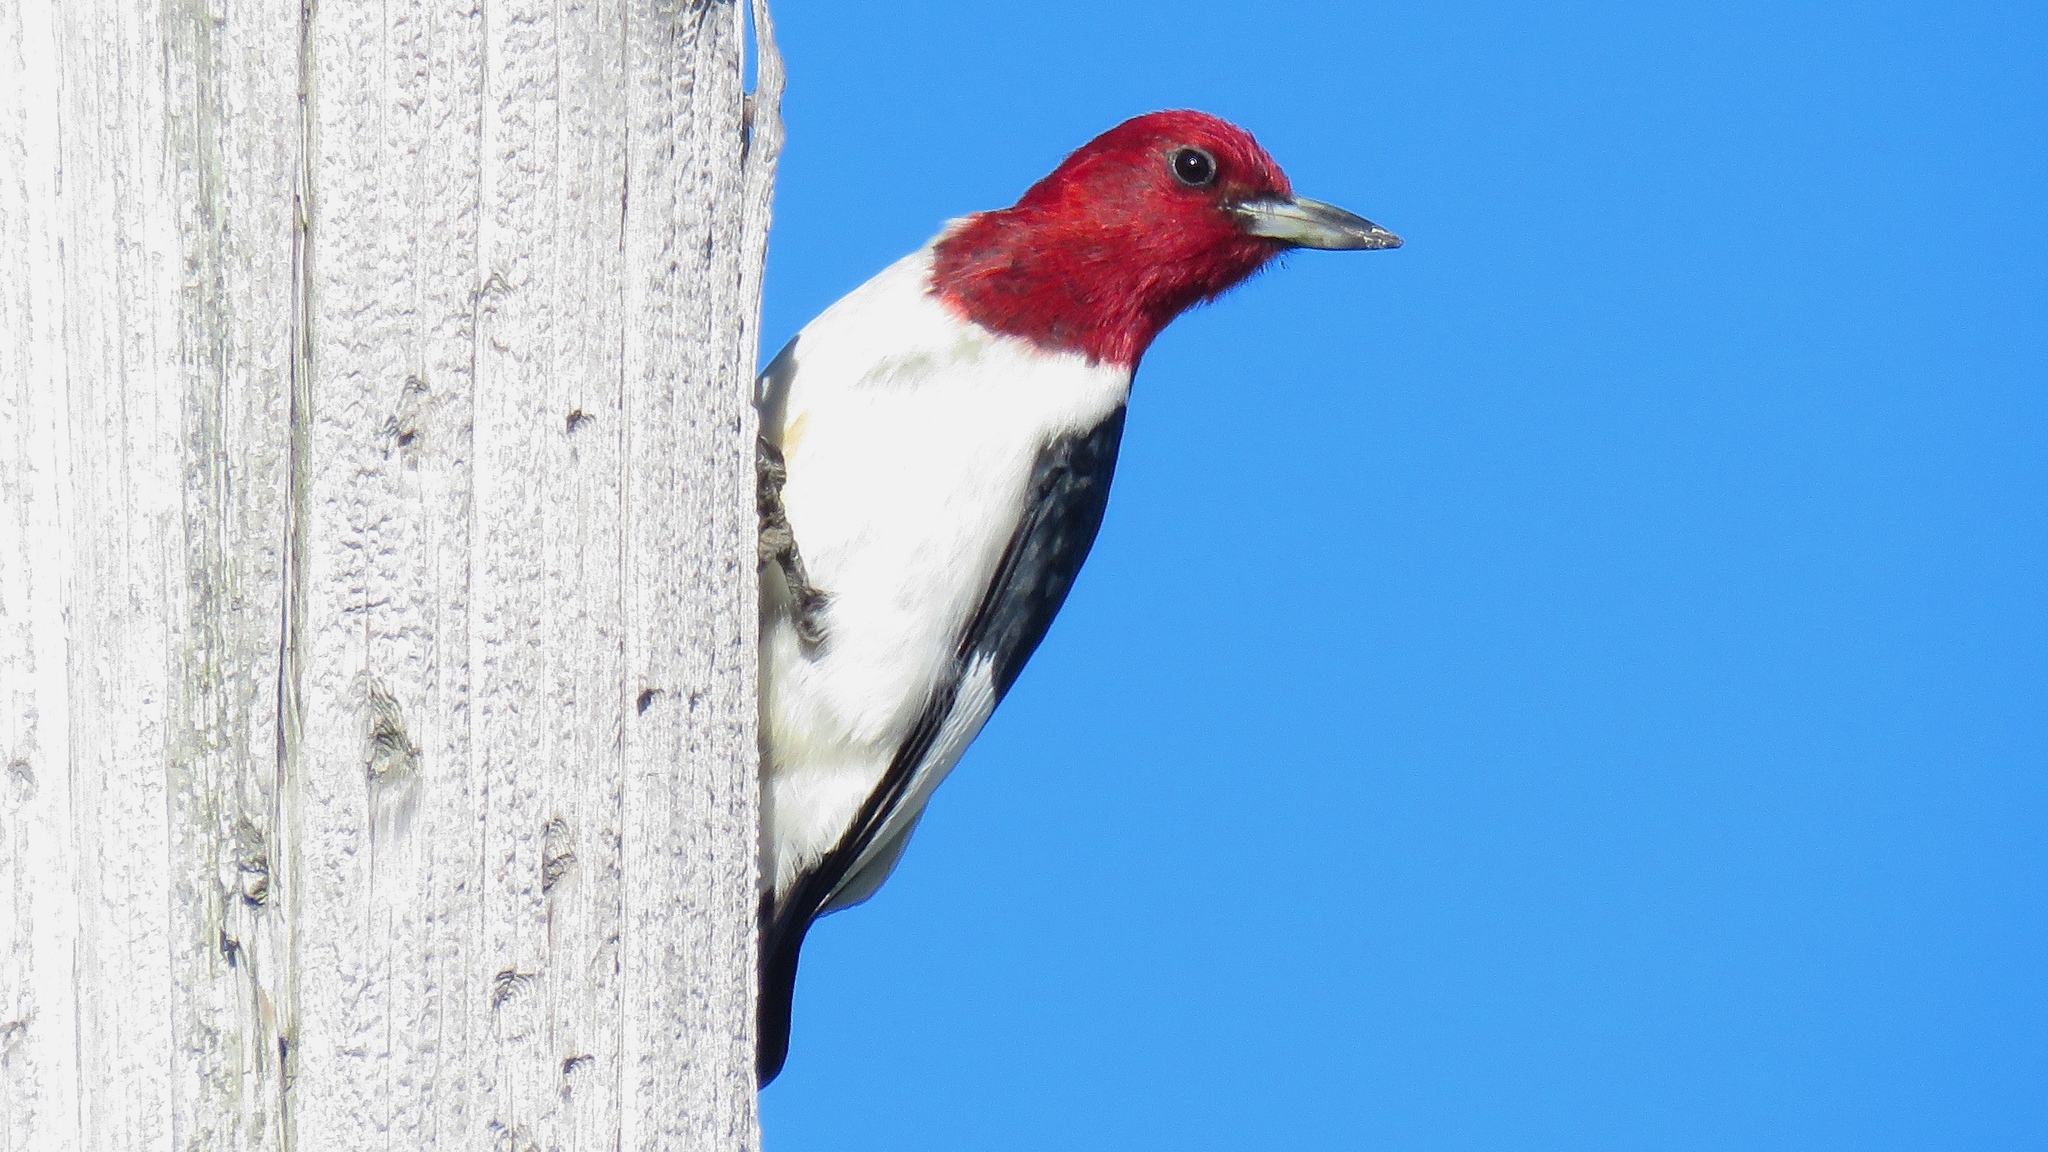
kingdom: Animalia
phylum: Chordata
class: Aves
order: Piciformes
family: Picidae
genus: Melanerpes
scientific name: Melanerpes erythrocephalus
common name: Red-headed woodpecker
